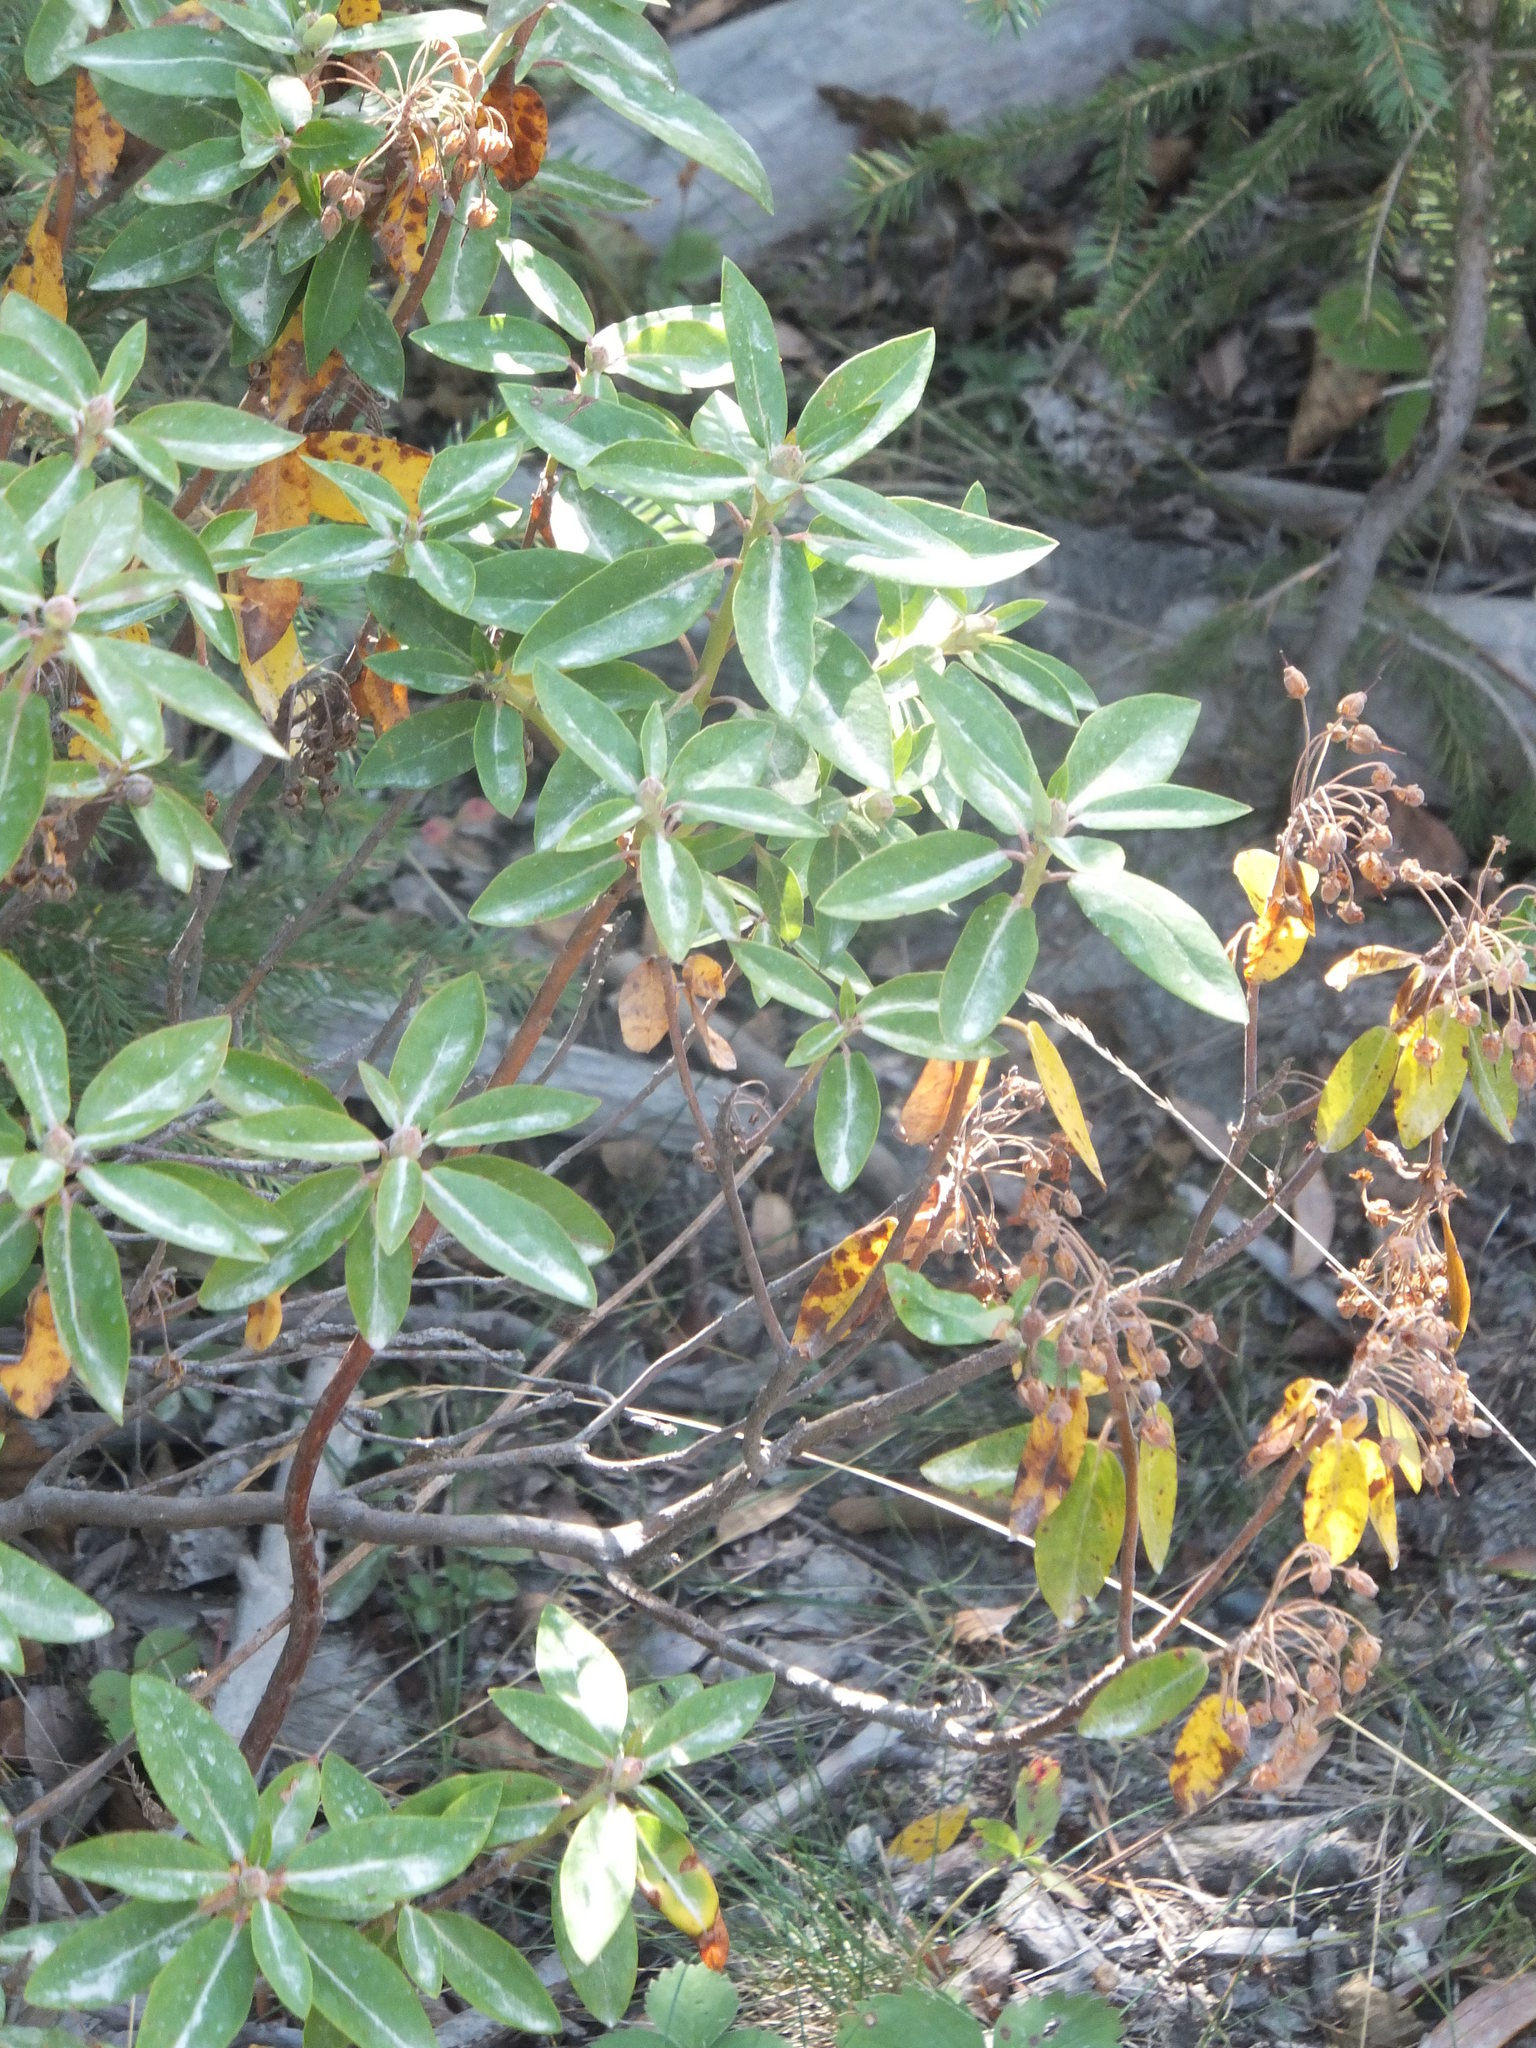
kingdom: Plantae
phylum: Tracheophyta
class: Magnoliopsida
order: Ericales
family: Ericaceae
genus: Rhododendron
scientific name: Rhododendron columbianum
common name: Western labrador tea
